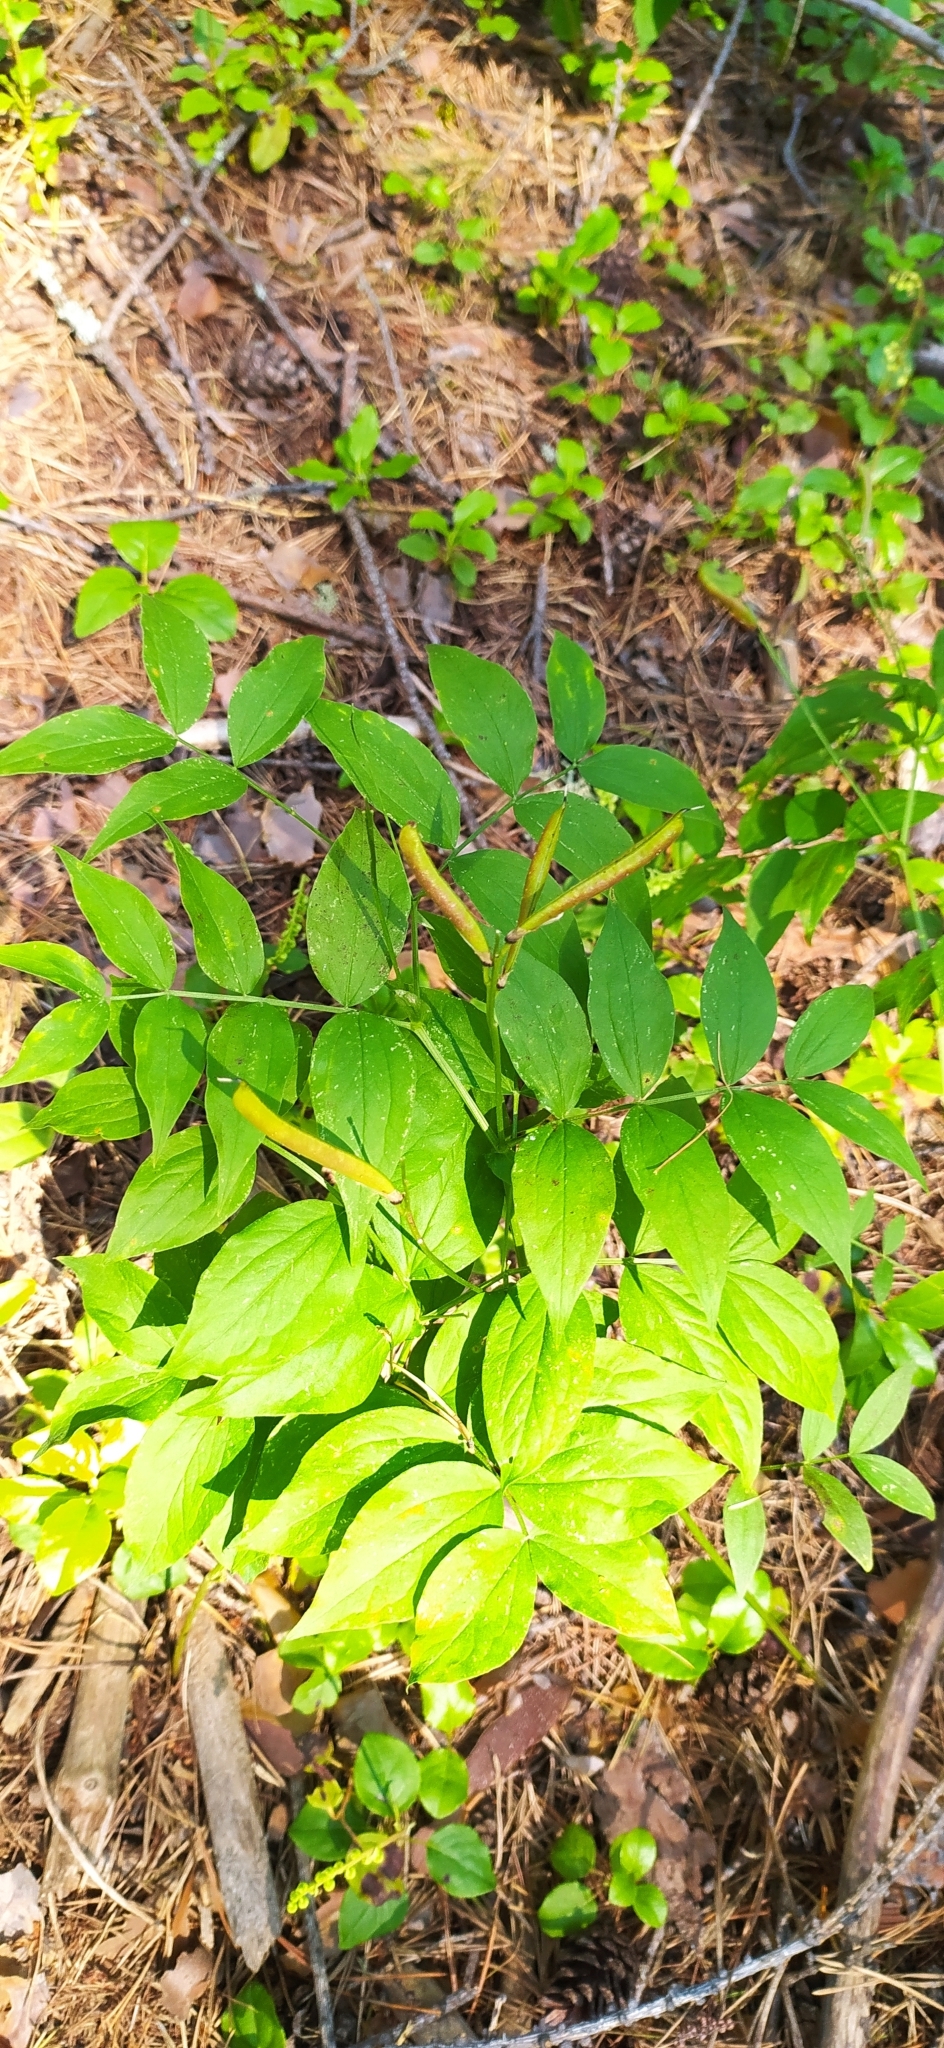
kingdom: Plantae
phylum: Tracheophyta
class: Magnoliopsida
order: Fabales
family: Fabaceae
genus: Lathyrus
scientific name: Lathyrus vernus
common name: Spring pea
